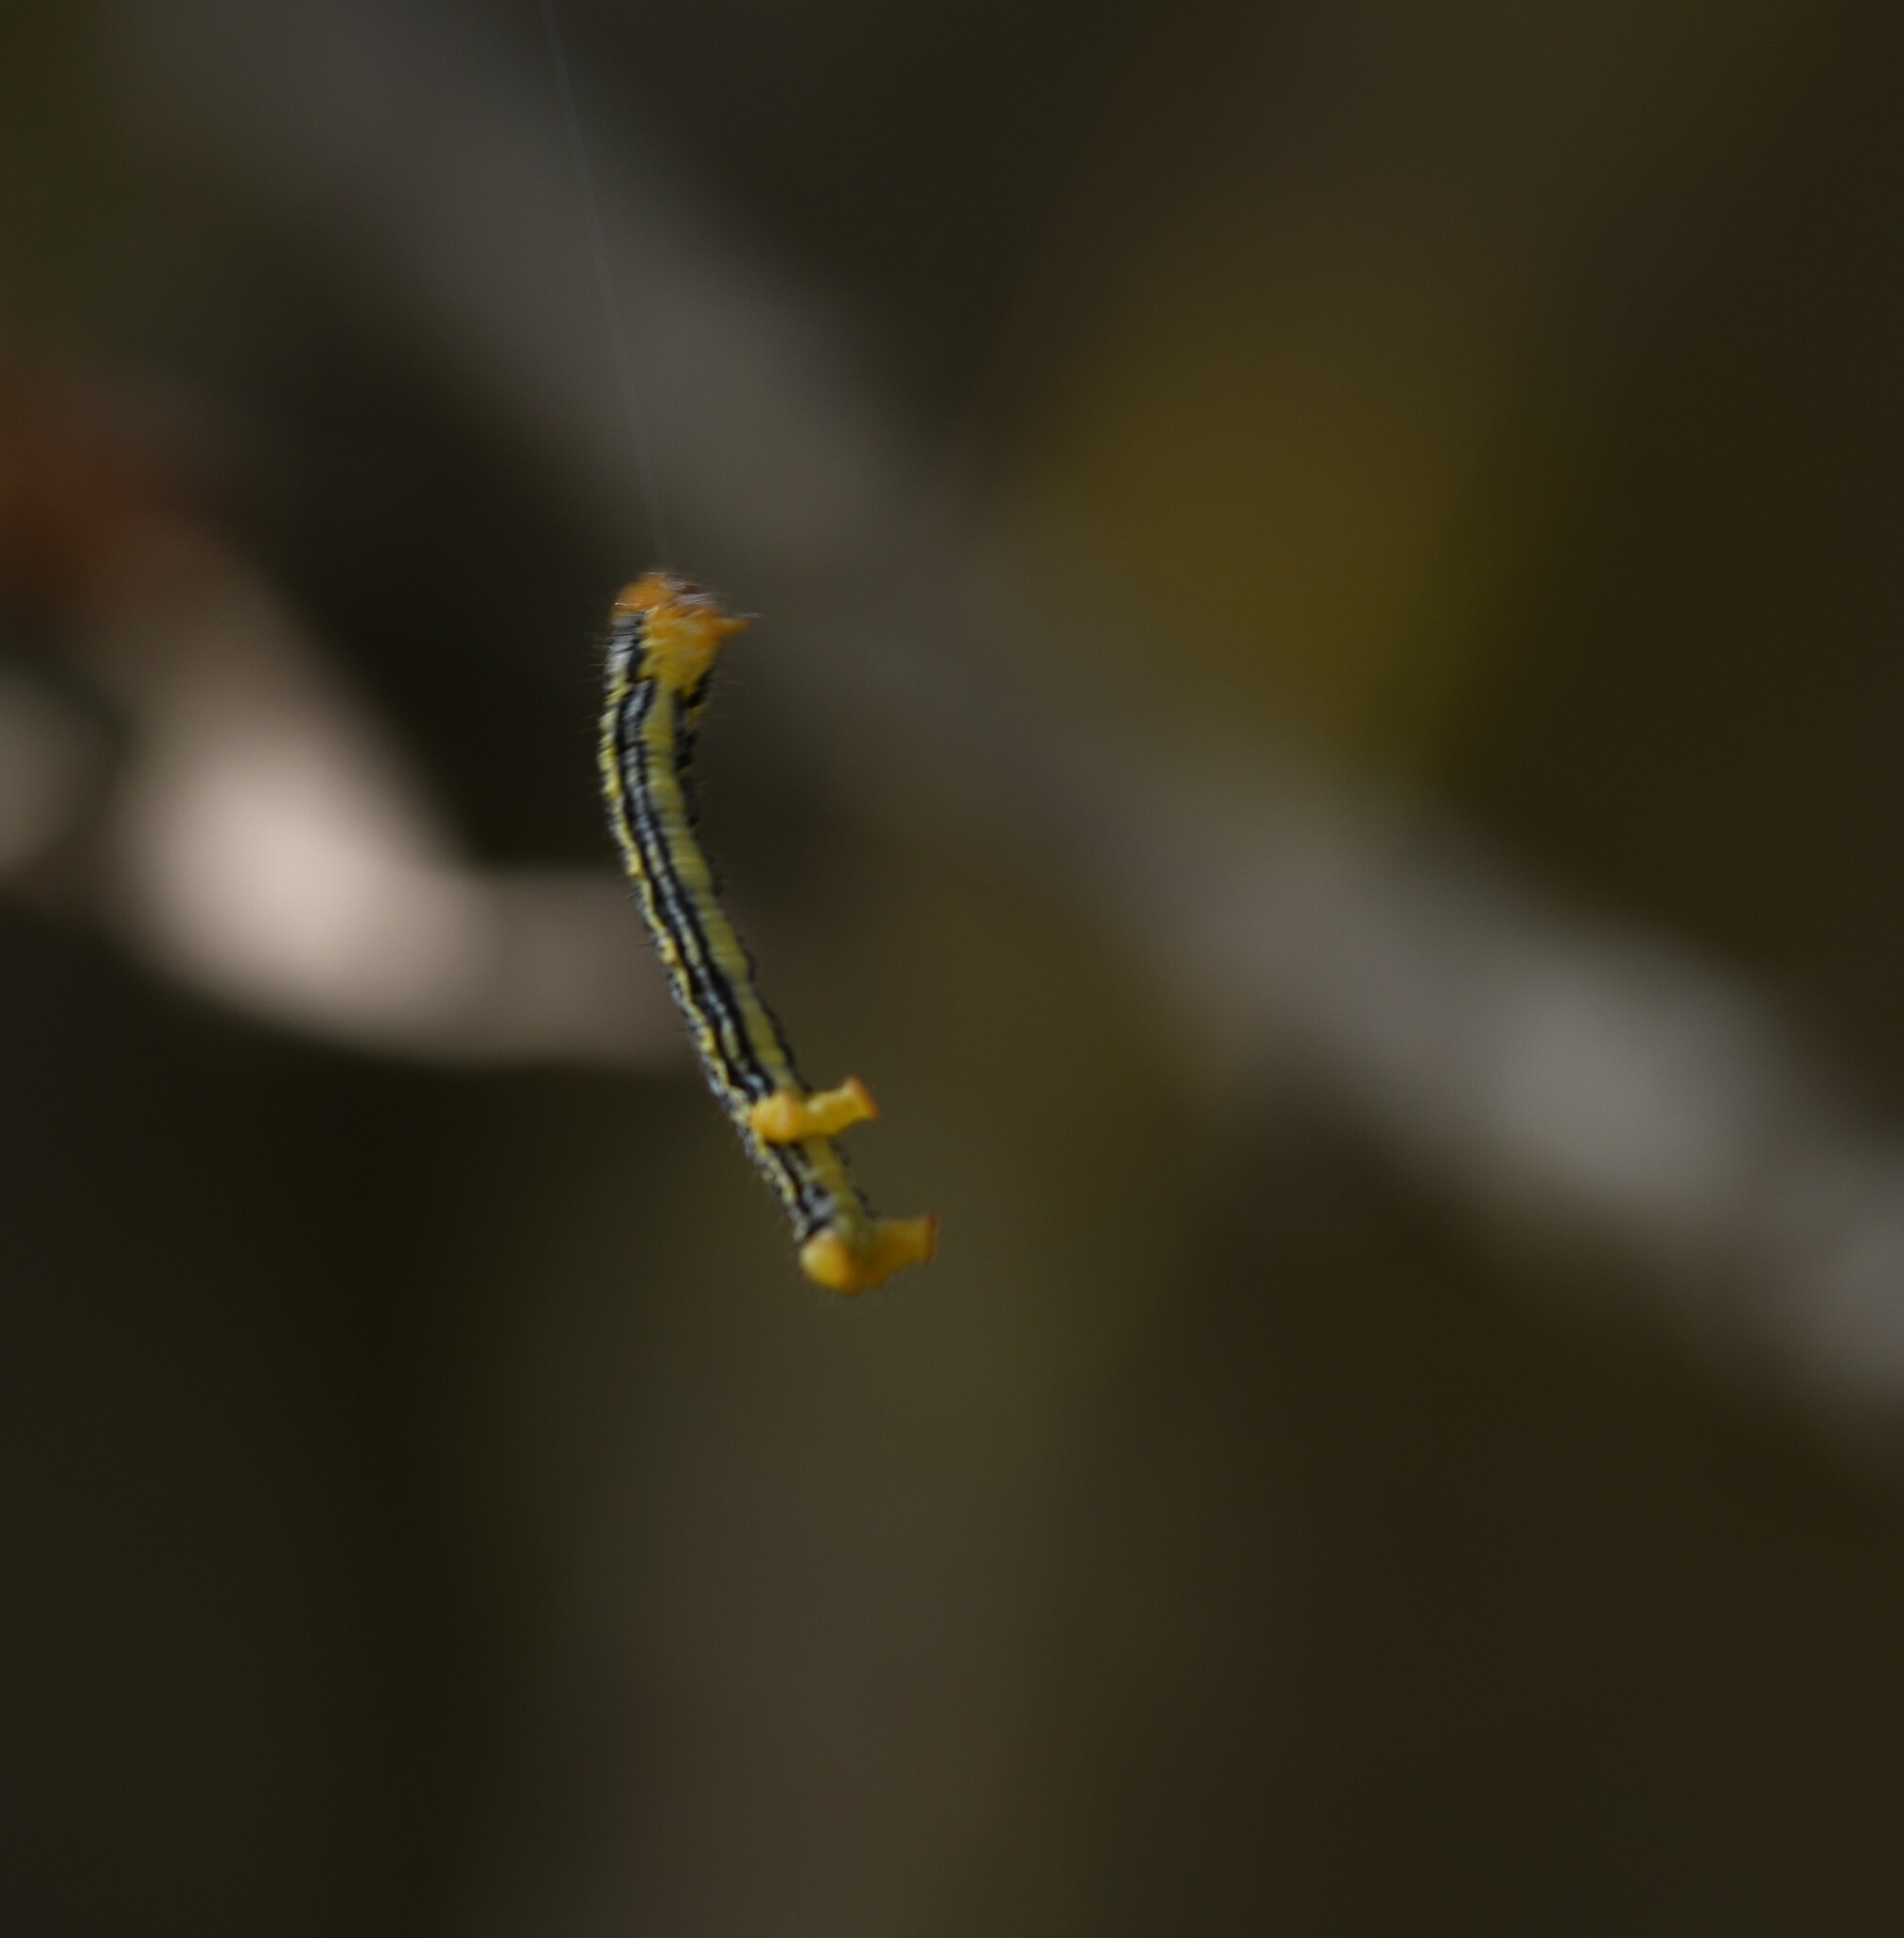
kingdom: Animalia
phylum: Arthropoda
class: Insecta
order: Lepidoptera
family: Geometridae
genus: Abraxas
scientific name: Abraxas pantaria
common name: Light magpie
